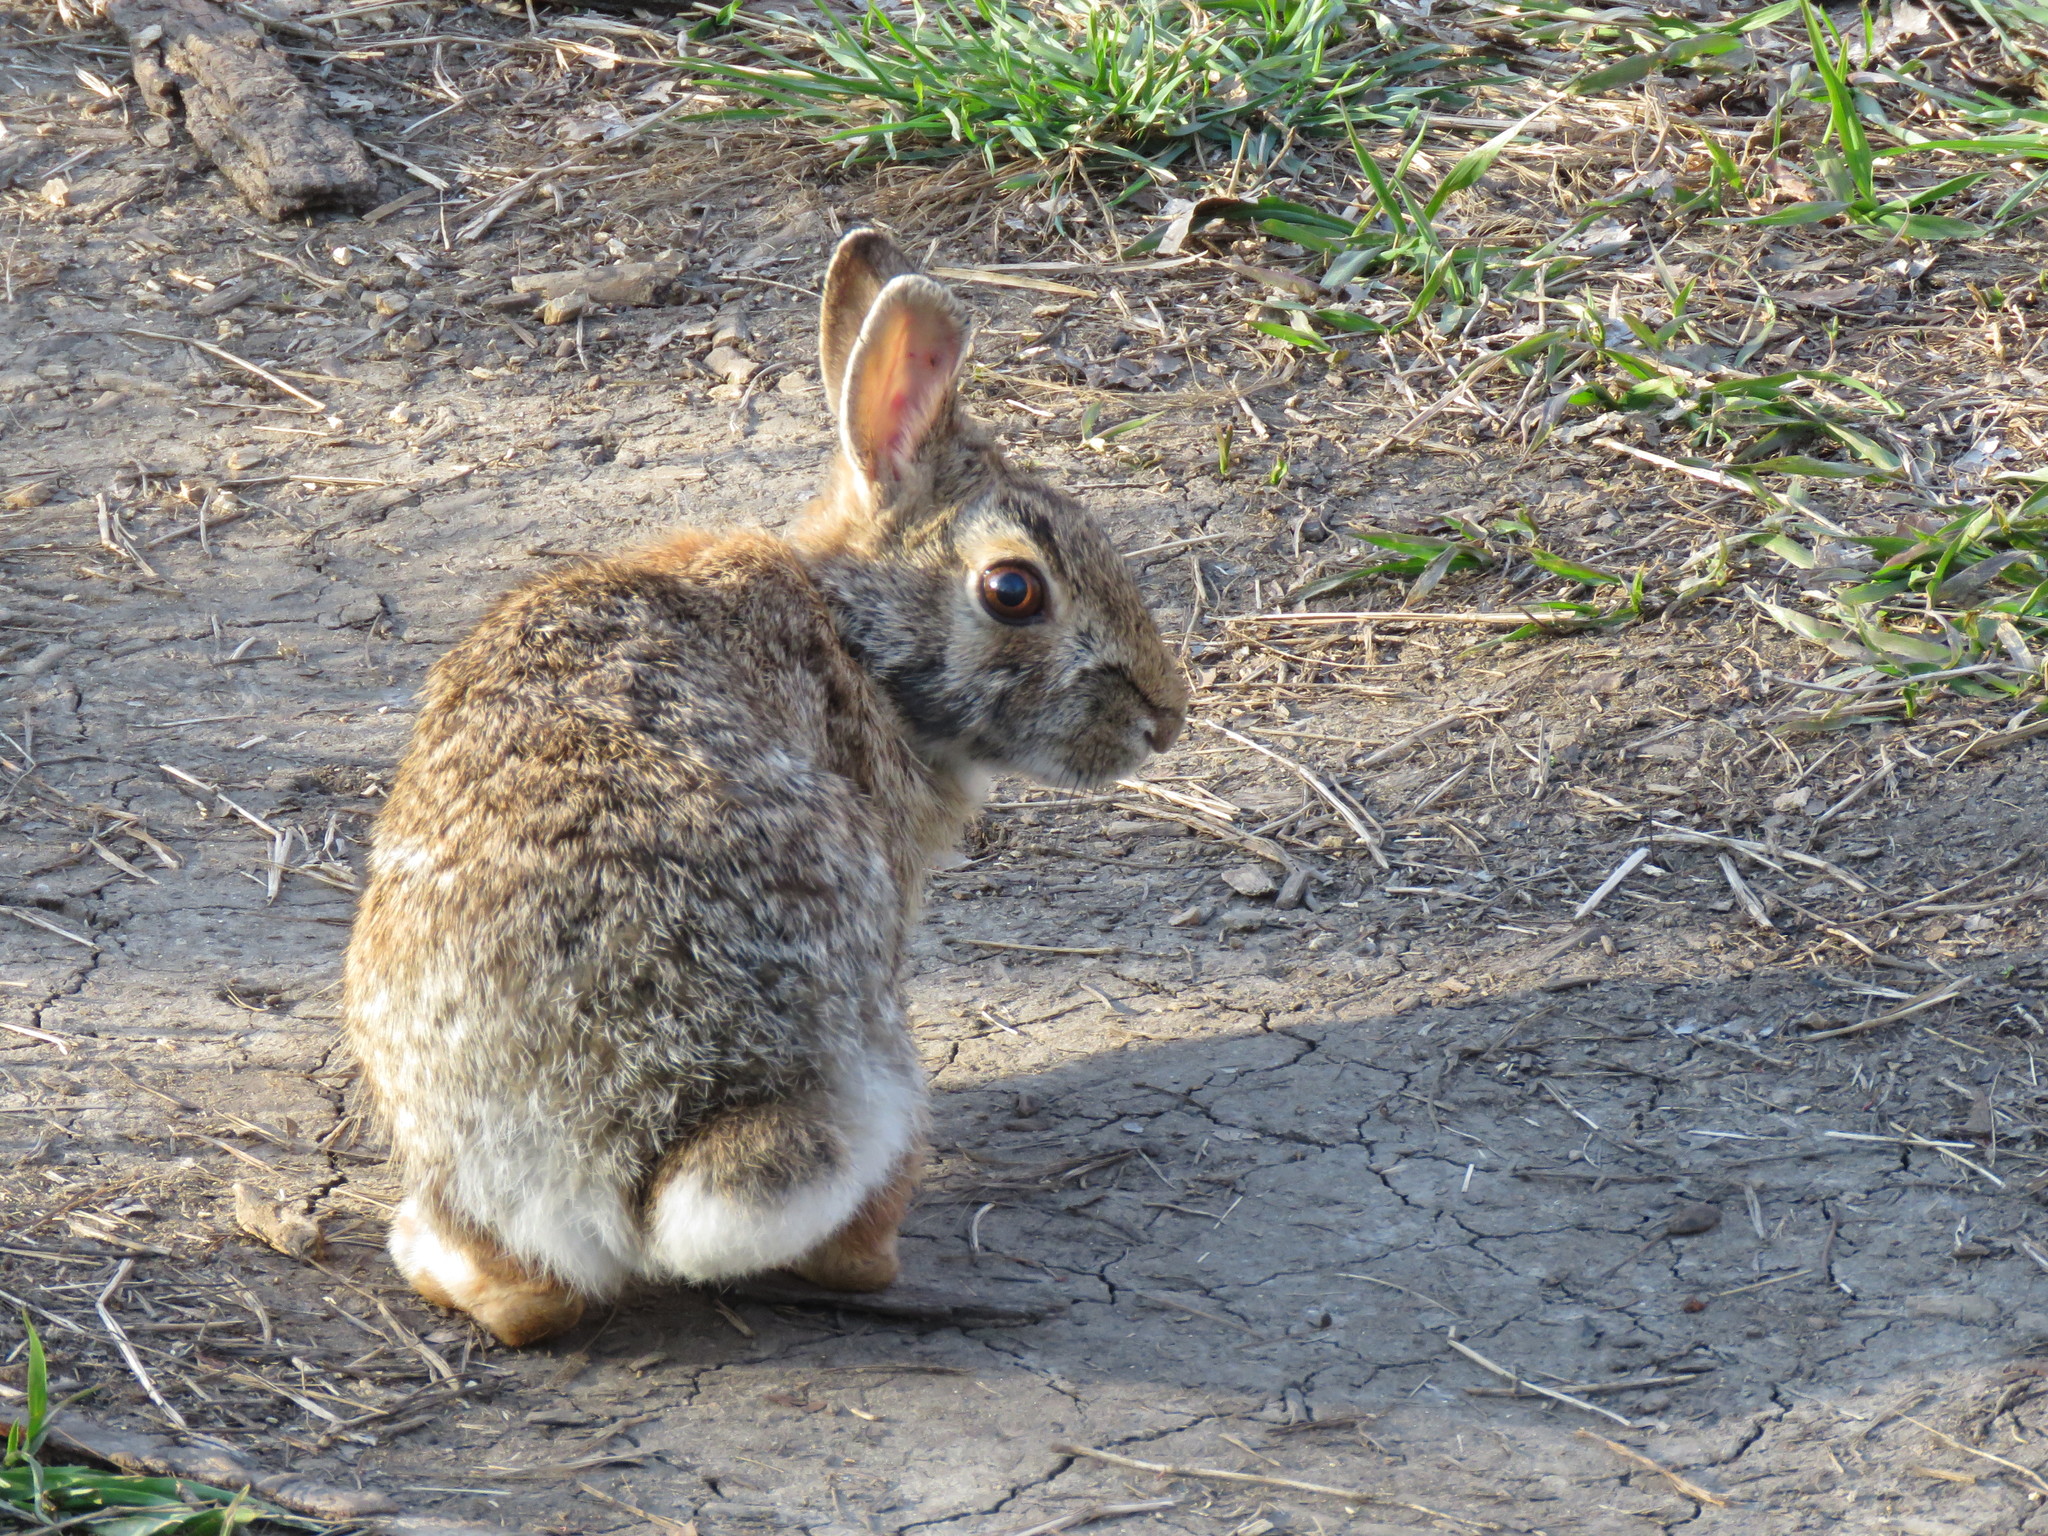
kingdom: Animalia
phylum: Chordata
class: Mammalia
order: Lagomorpha
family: Leporidae
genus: Sylvilagus
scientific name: Sylvilagus floridanus
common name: Eastern cottontail
